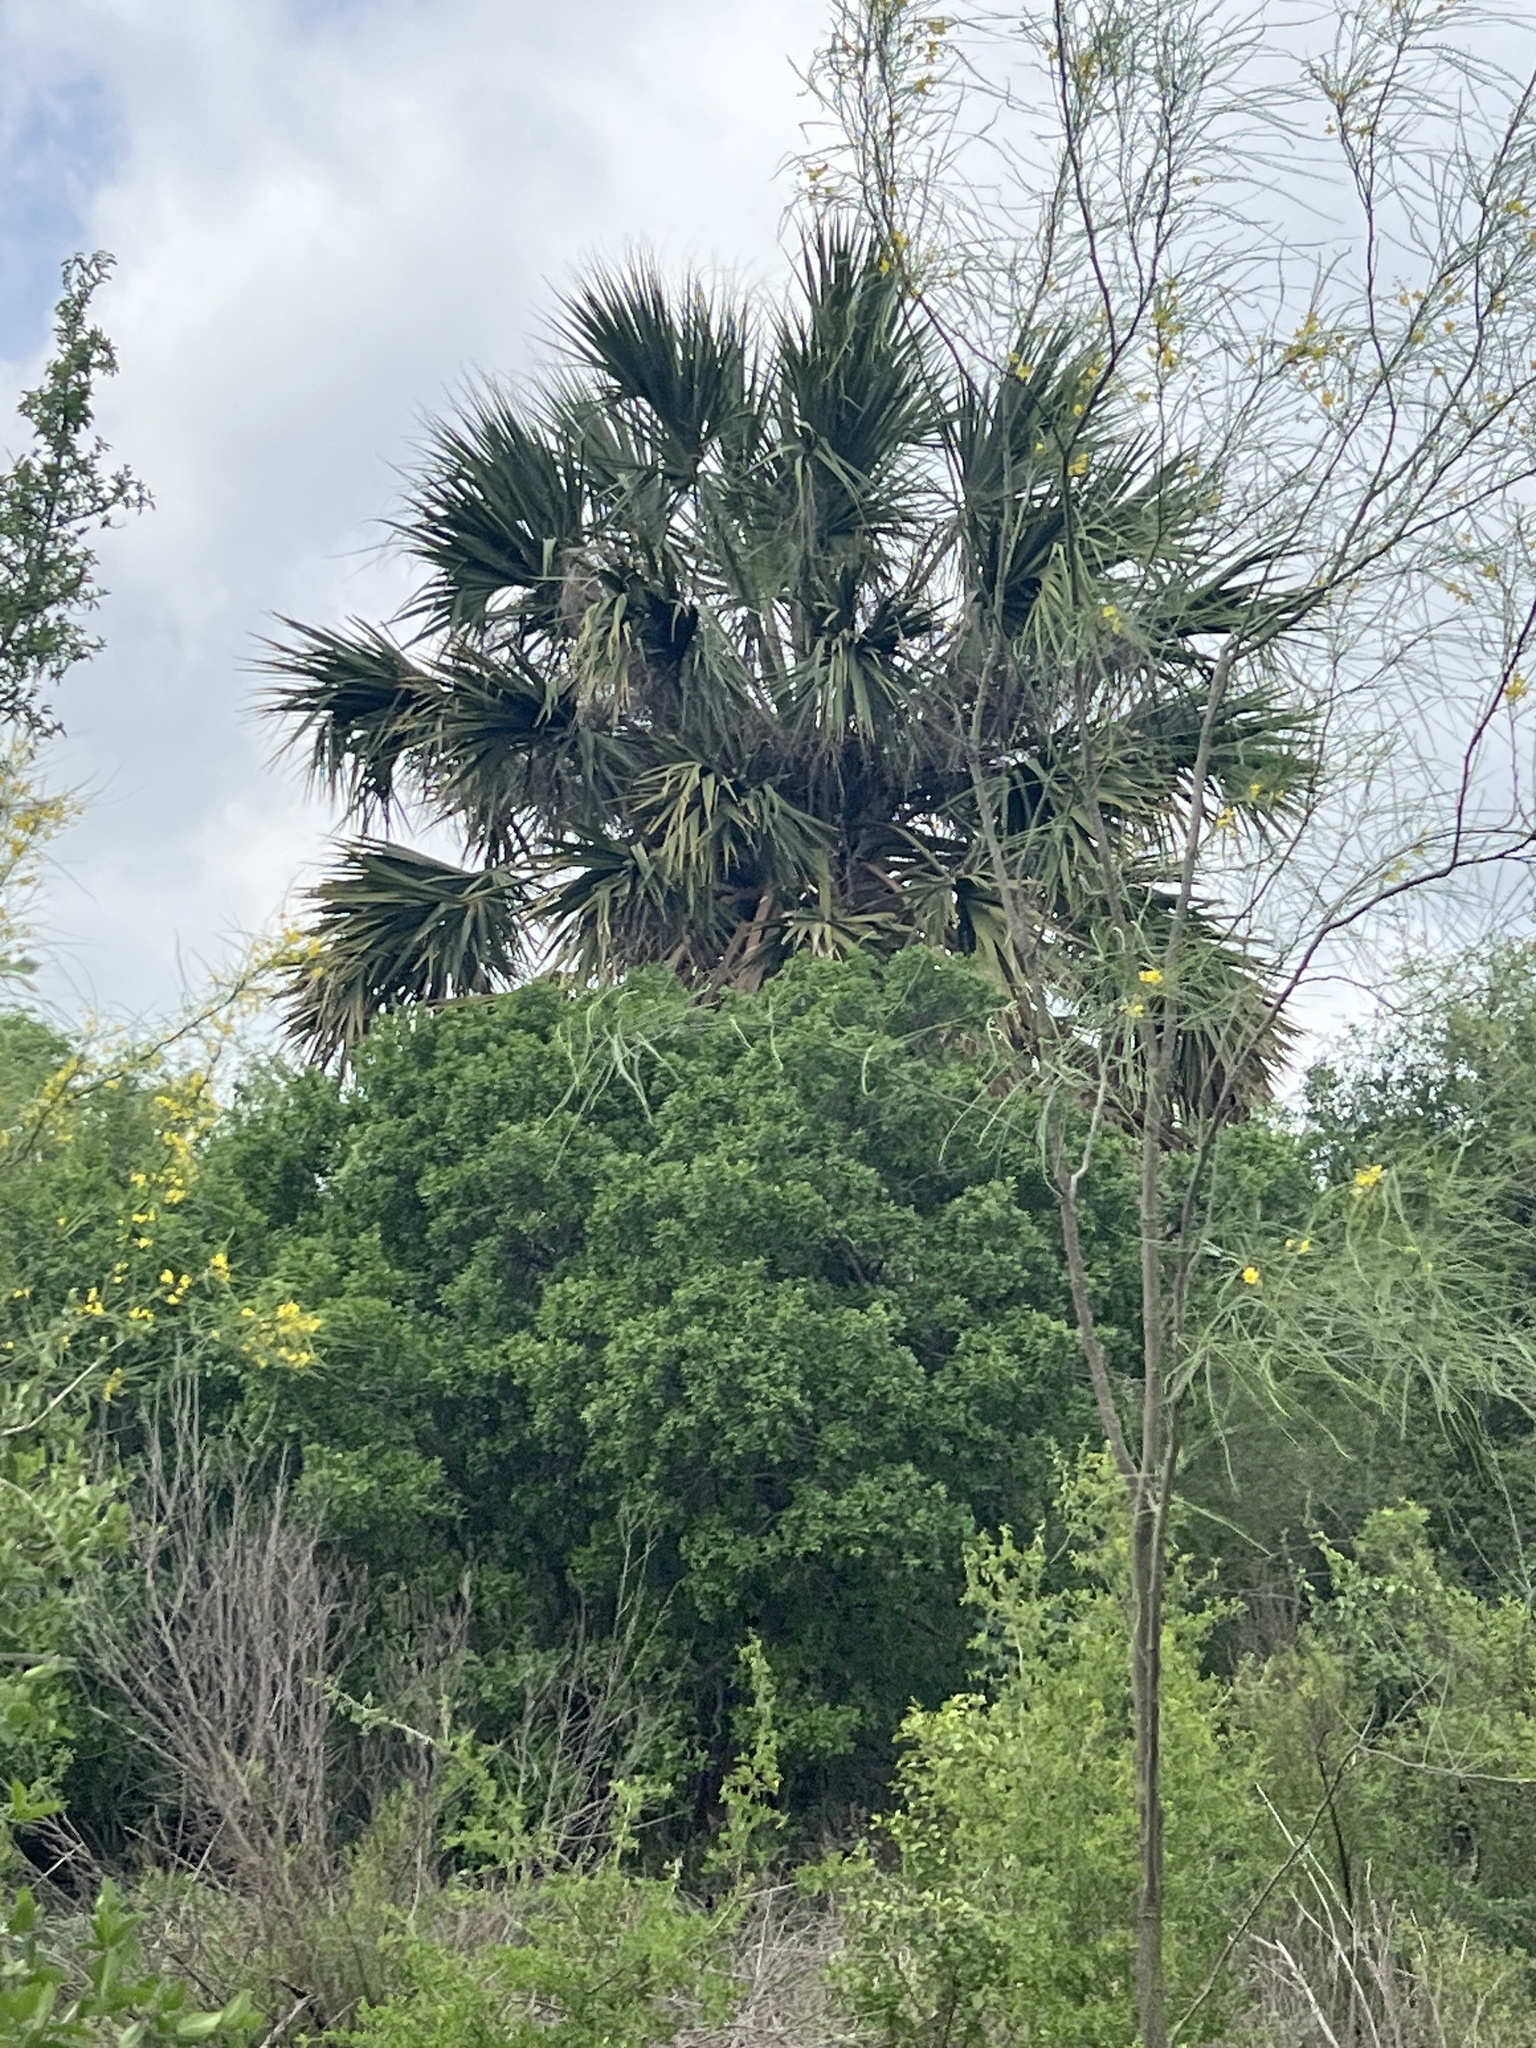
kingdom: Plantae
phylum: Tracheophyta
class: Liliopsida
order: Arecales
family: Arecaceae
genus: Sabal
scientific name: Sabal mexicana
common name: Texas palmetto
